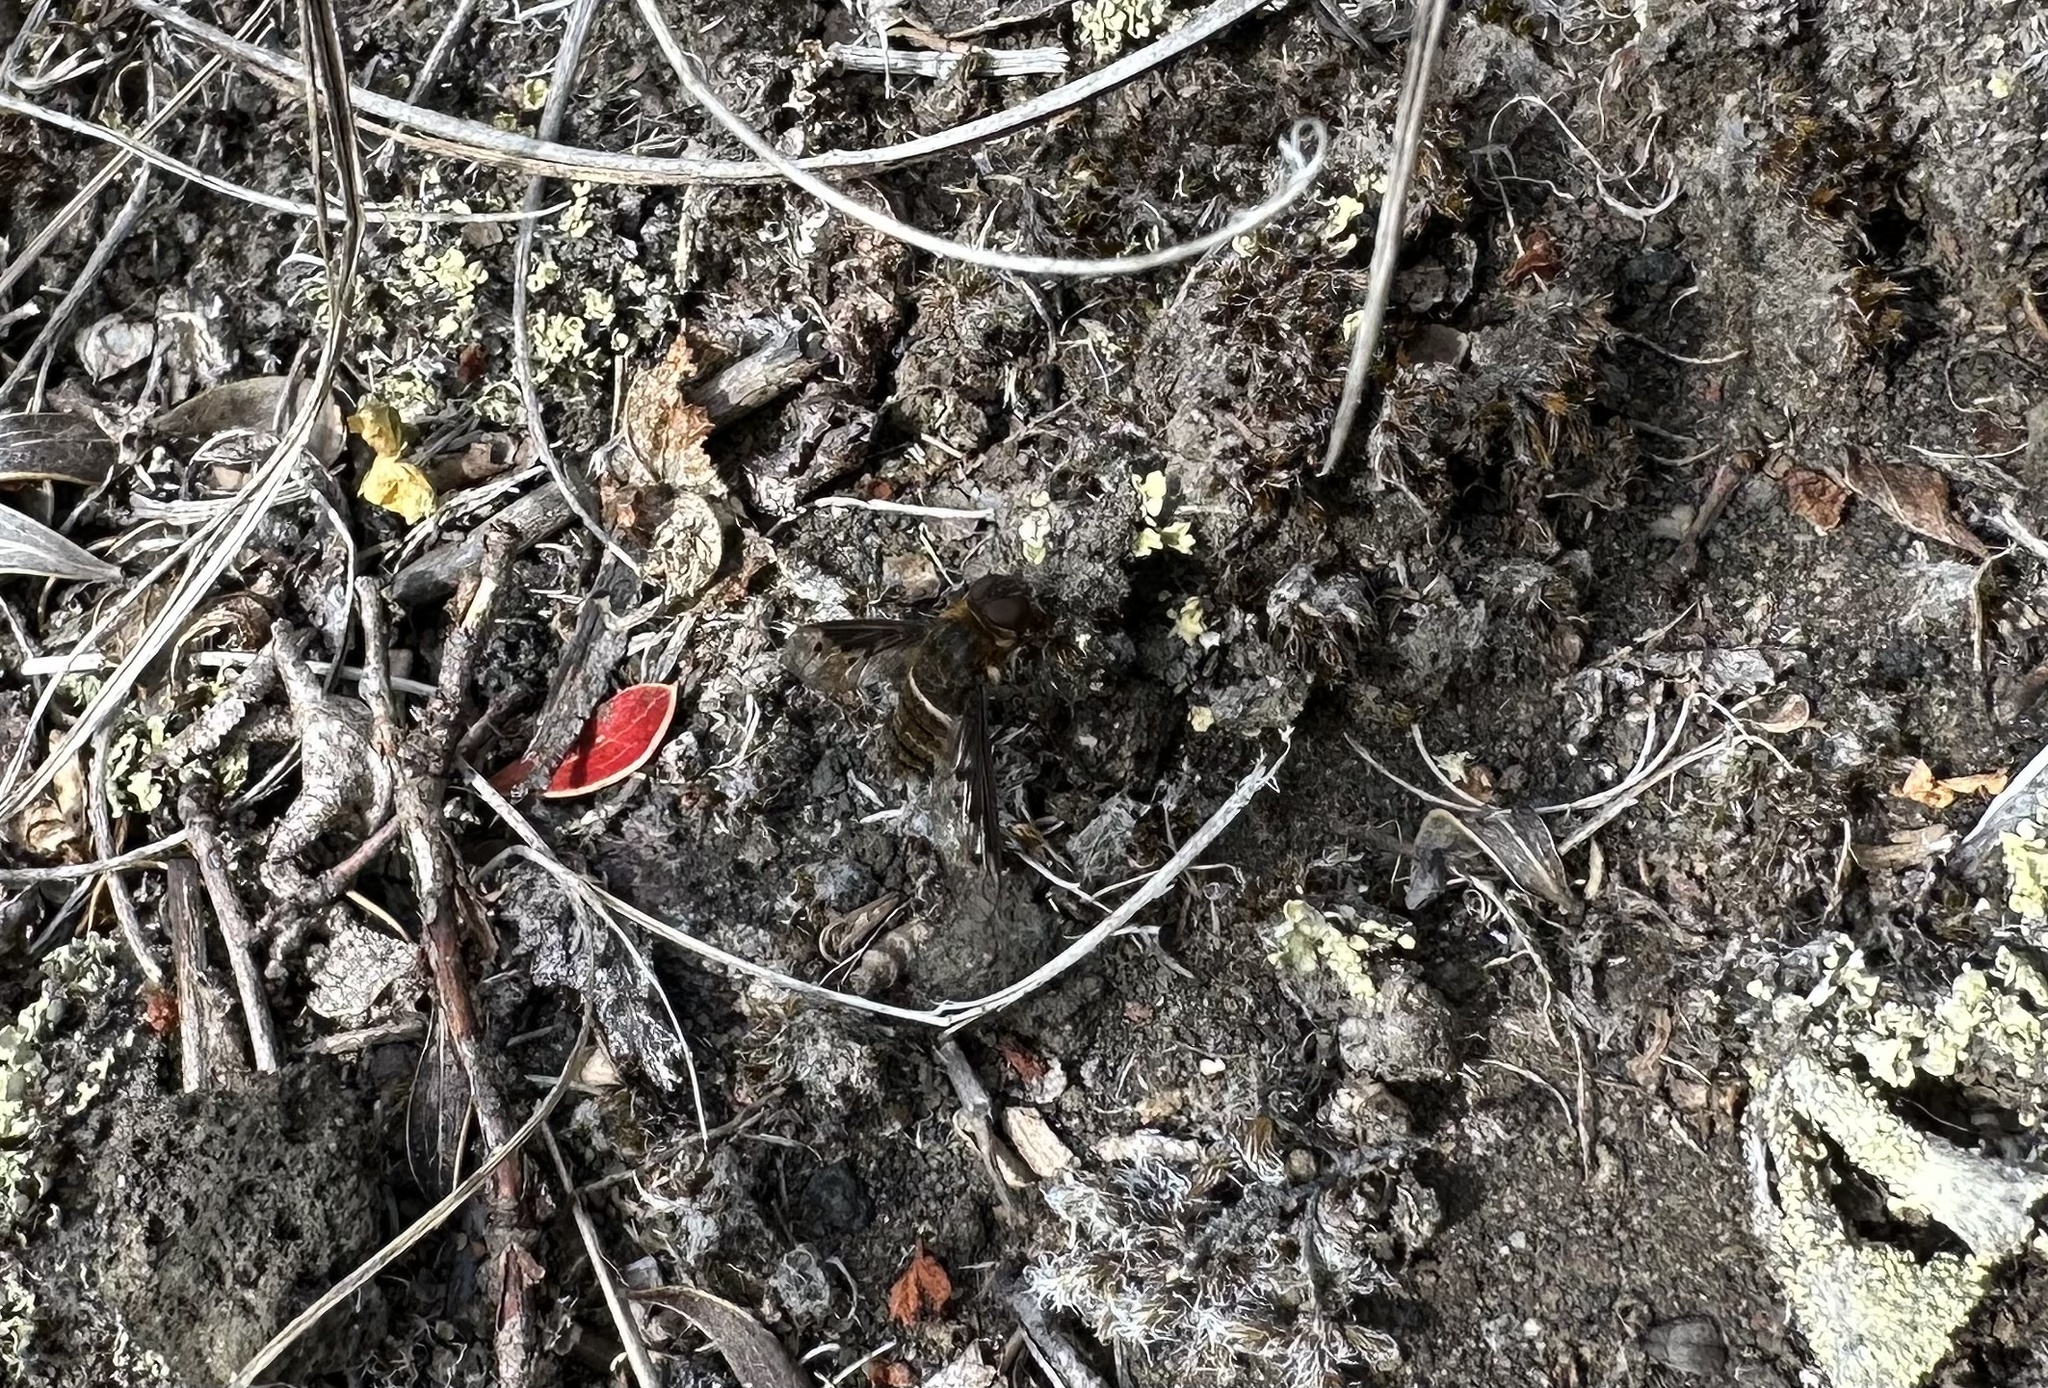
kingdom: Animalia
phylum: Arthropoda
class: Insecta
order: Diptera
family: Bombyliidae
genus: Chrysanthrax
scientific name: Chrysanthrax semilugens
